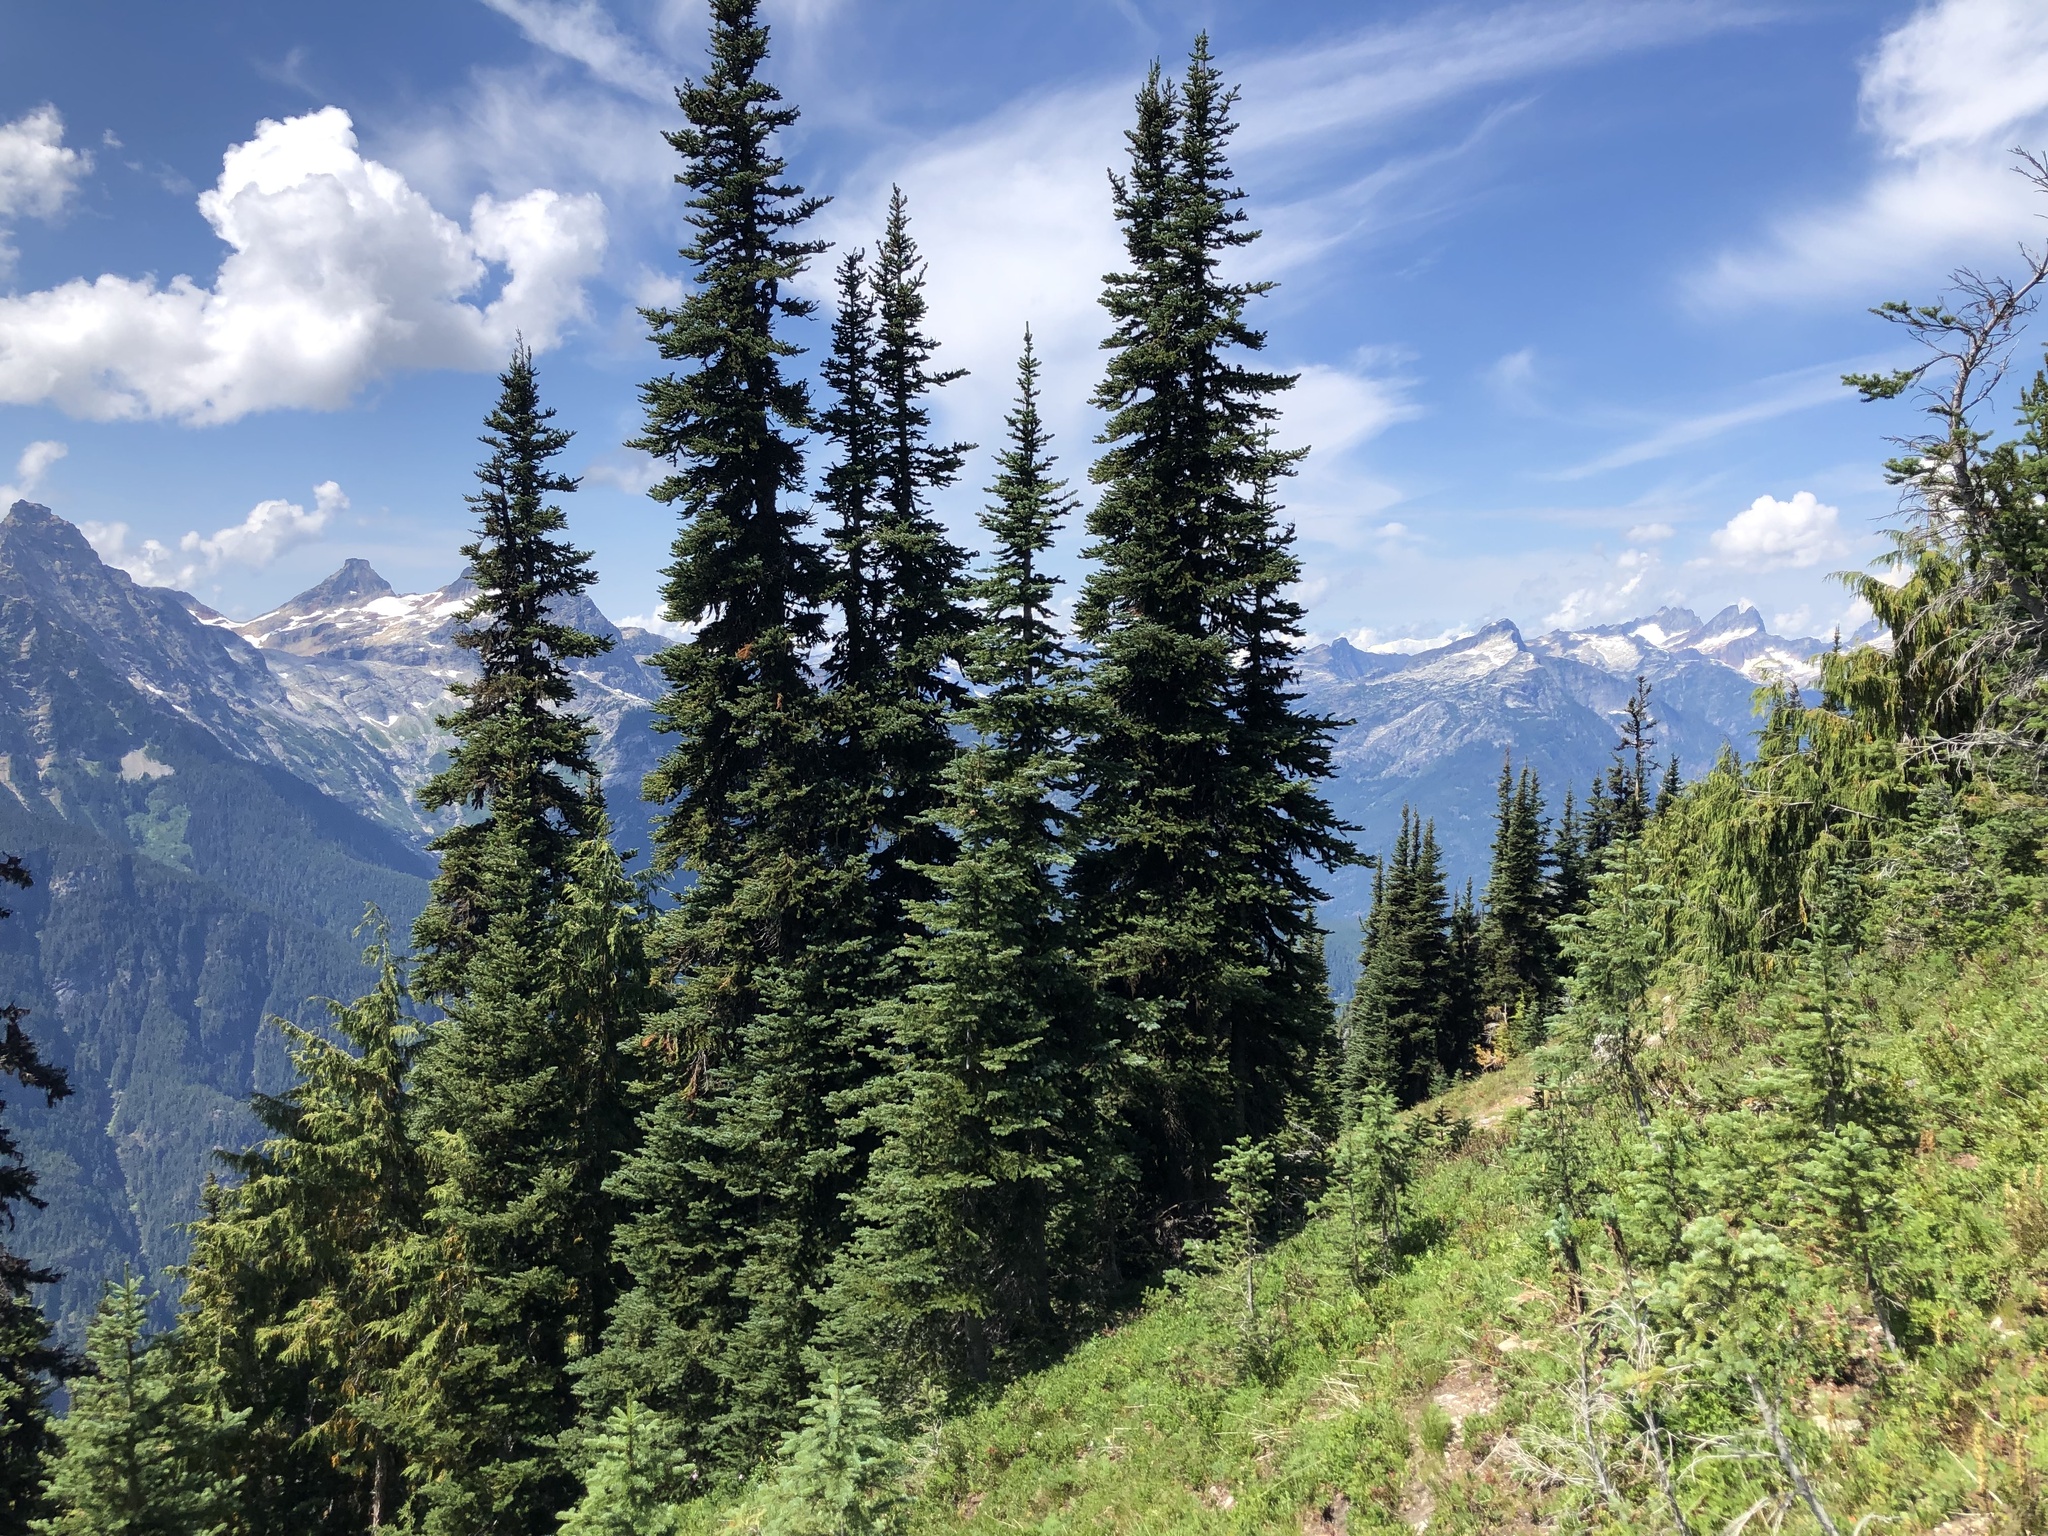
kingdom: Plantae
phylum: Tracheophyta
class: Pinopsida
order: Pinales
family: Pinaceae
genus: Abies
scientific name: Abies lasiocarpa
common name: Subalpine fir
